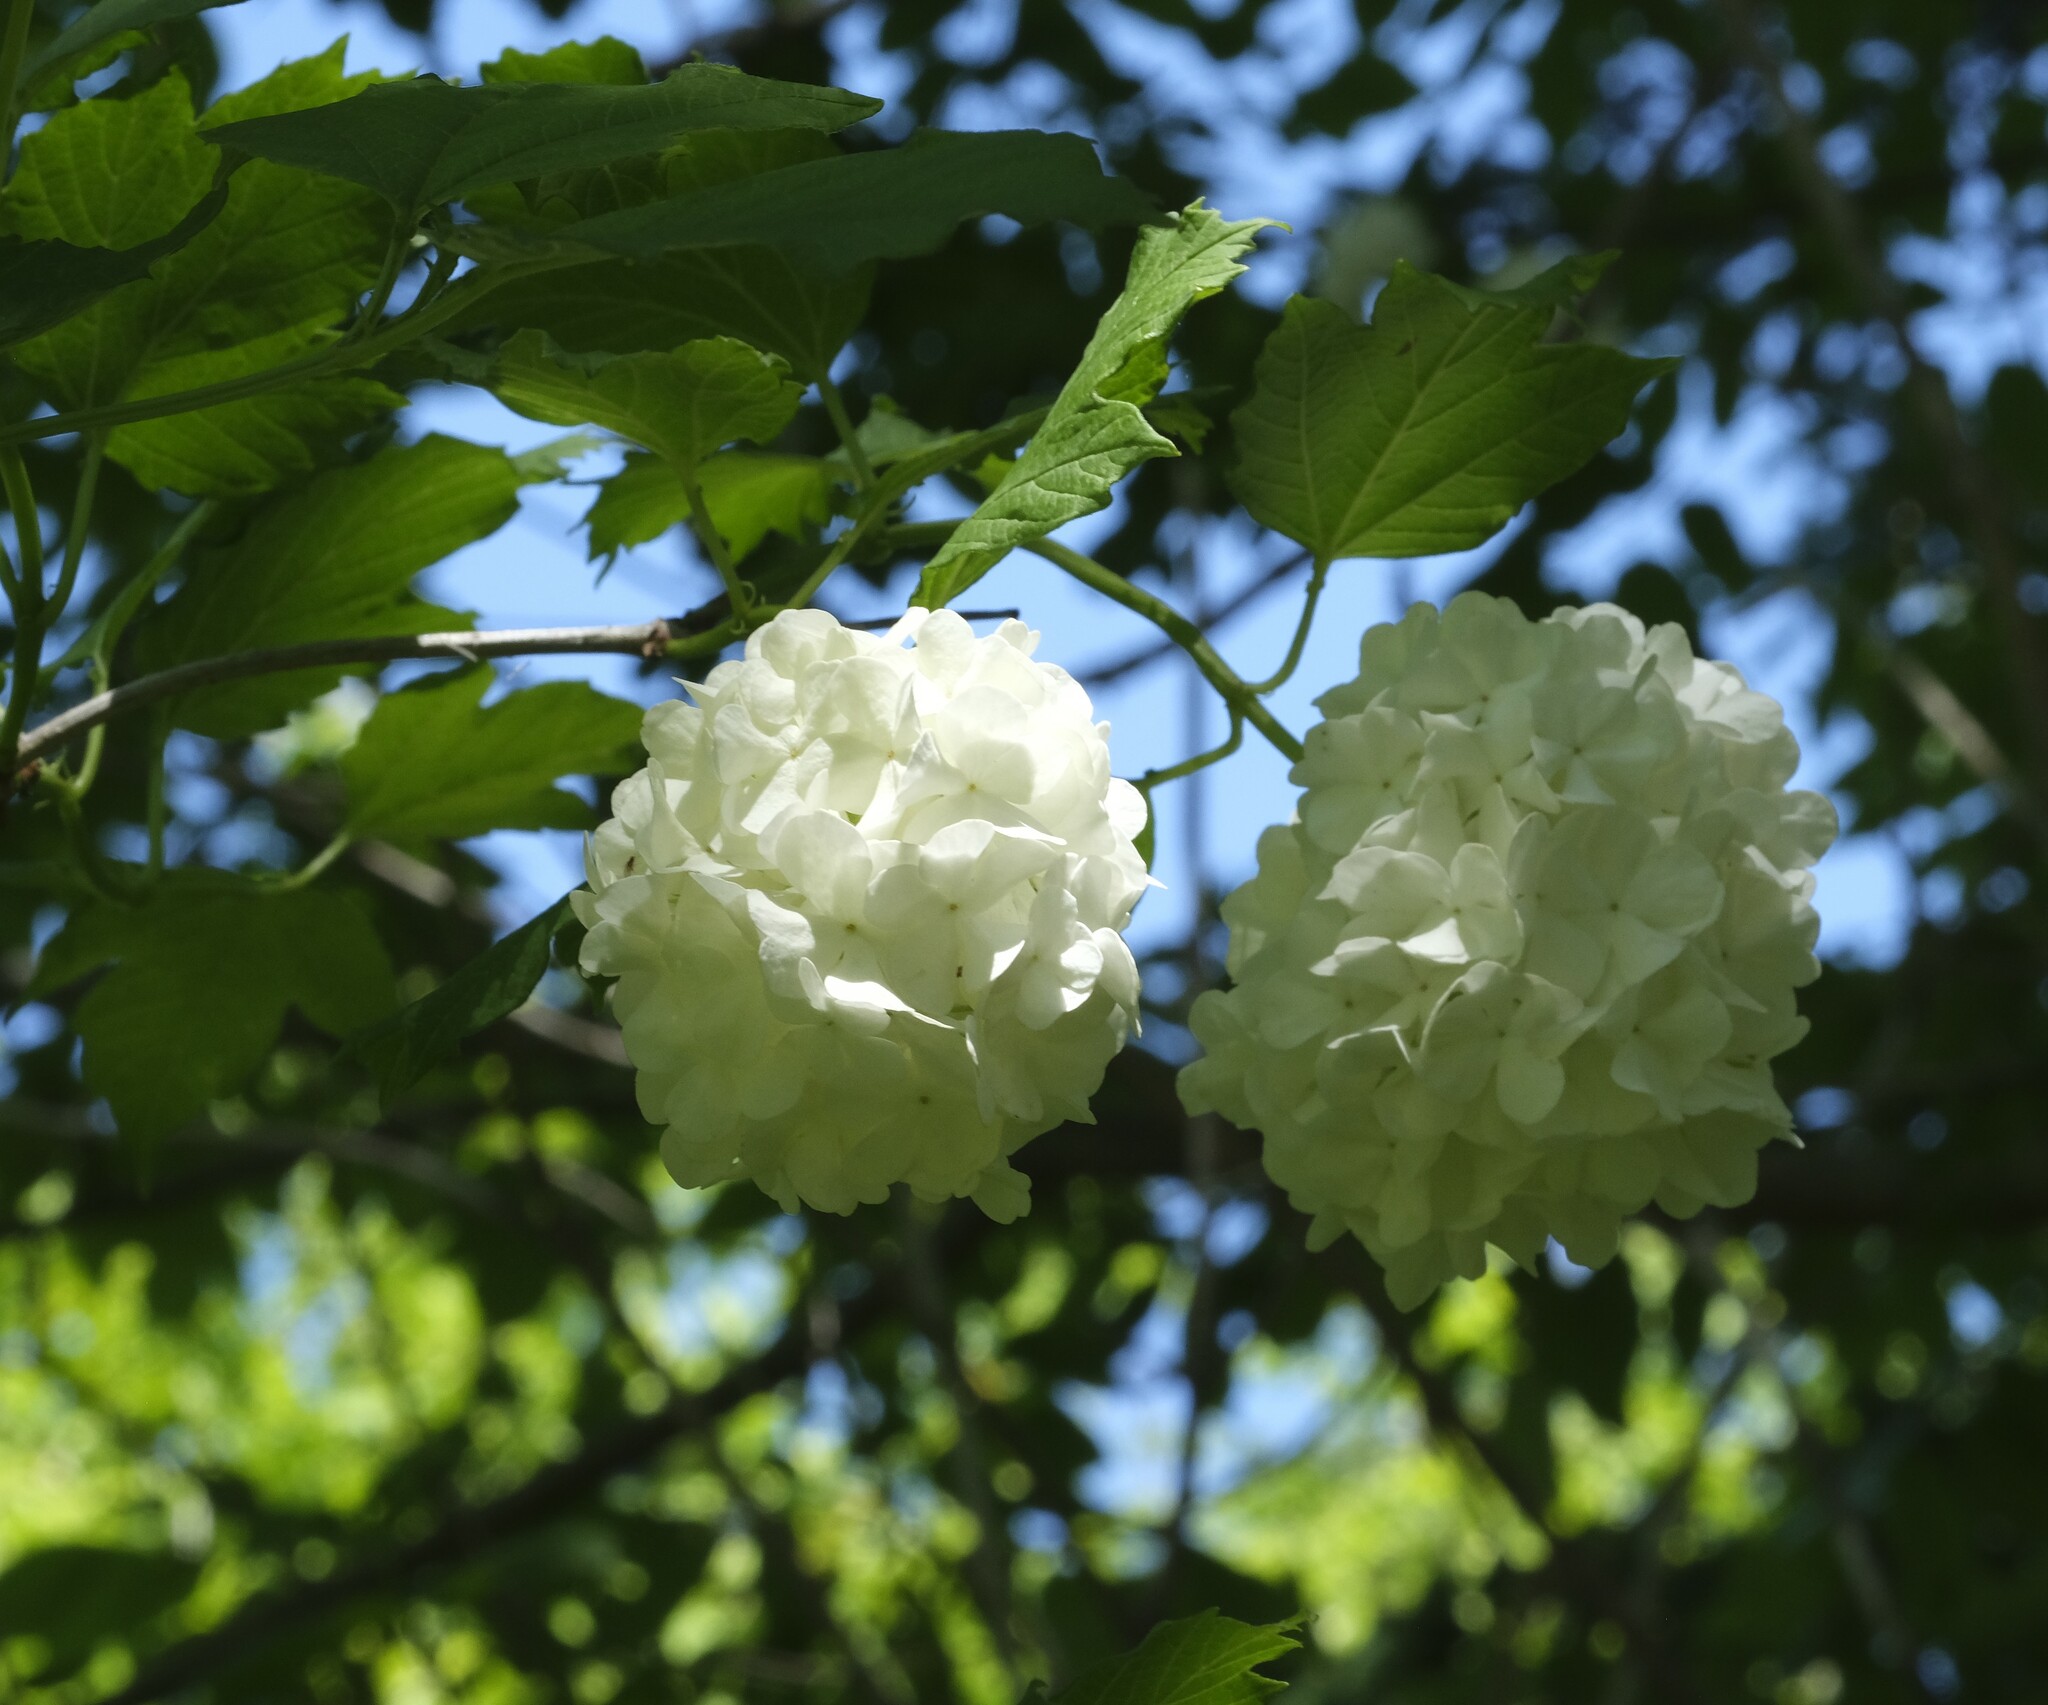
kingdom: Plantae
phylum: Tracheophyta
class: Magnoliopsida
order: Dipsacales
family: Viburnaceae
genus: Viburnum
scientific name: Viburnum opulus
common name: Guelder-rose
